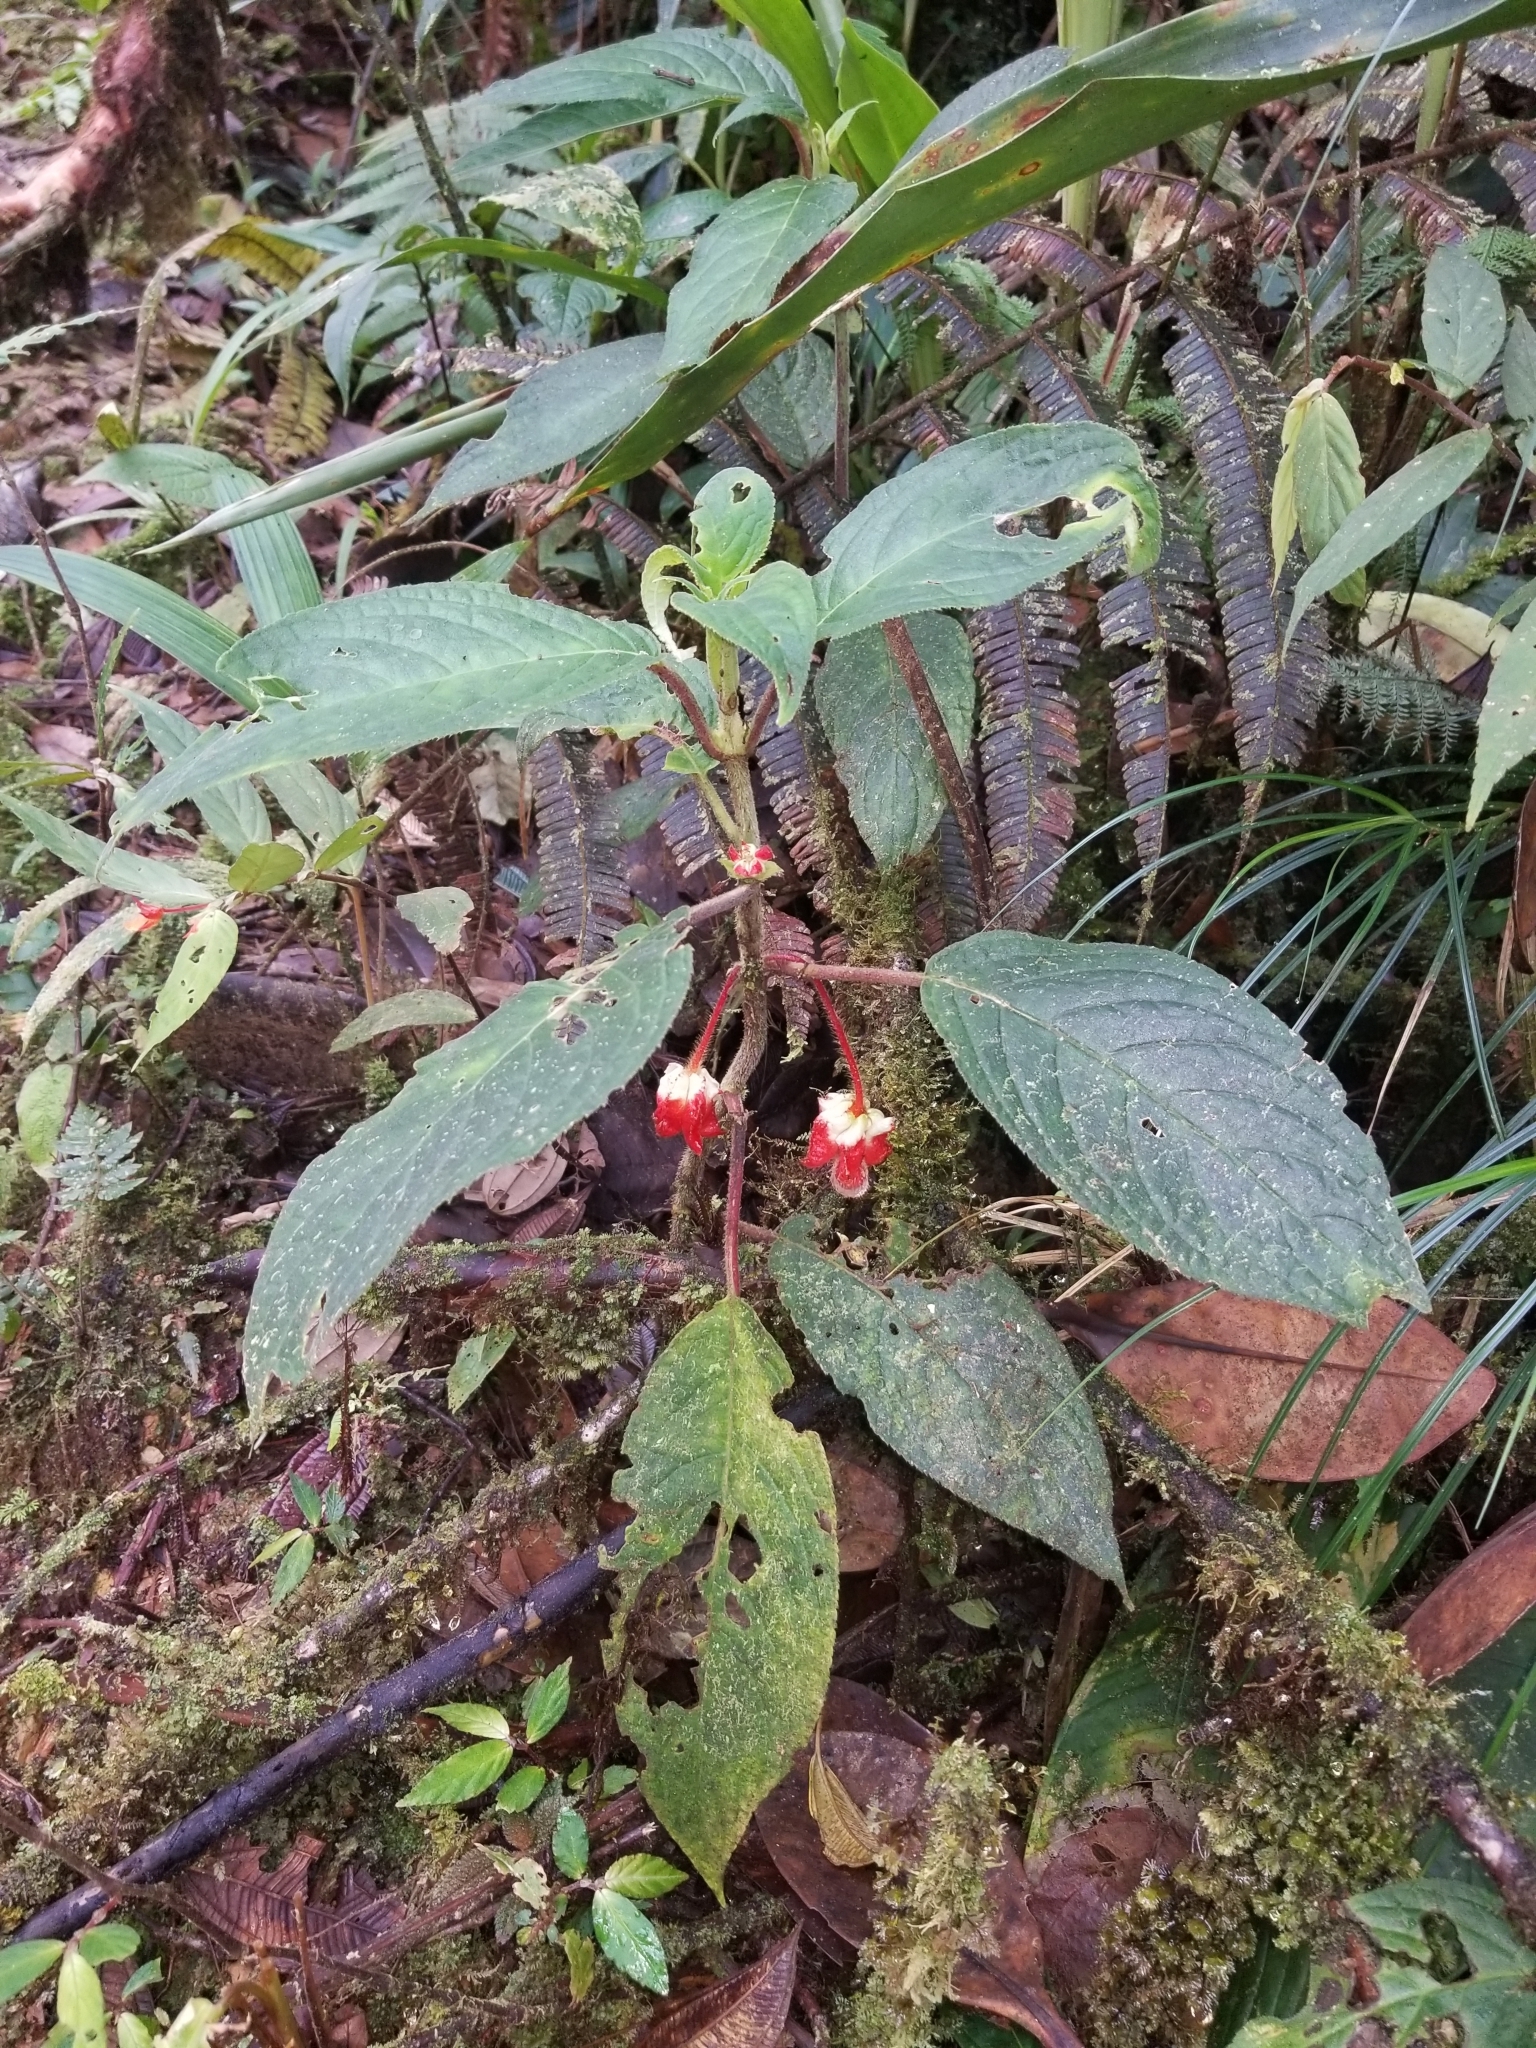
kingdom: Plantae
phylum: Tracheophyta
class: Magnoliopsida
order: Lamiales
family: Gesneriaceae
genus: Glossoloma
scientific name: Glossoloma schultzei
